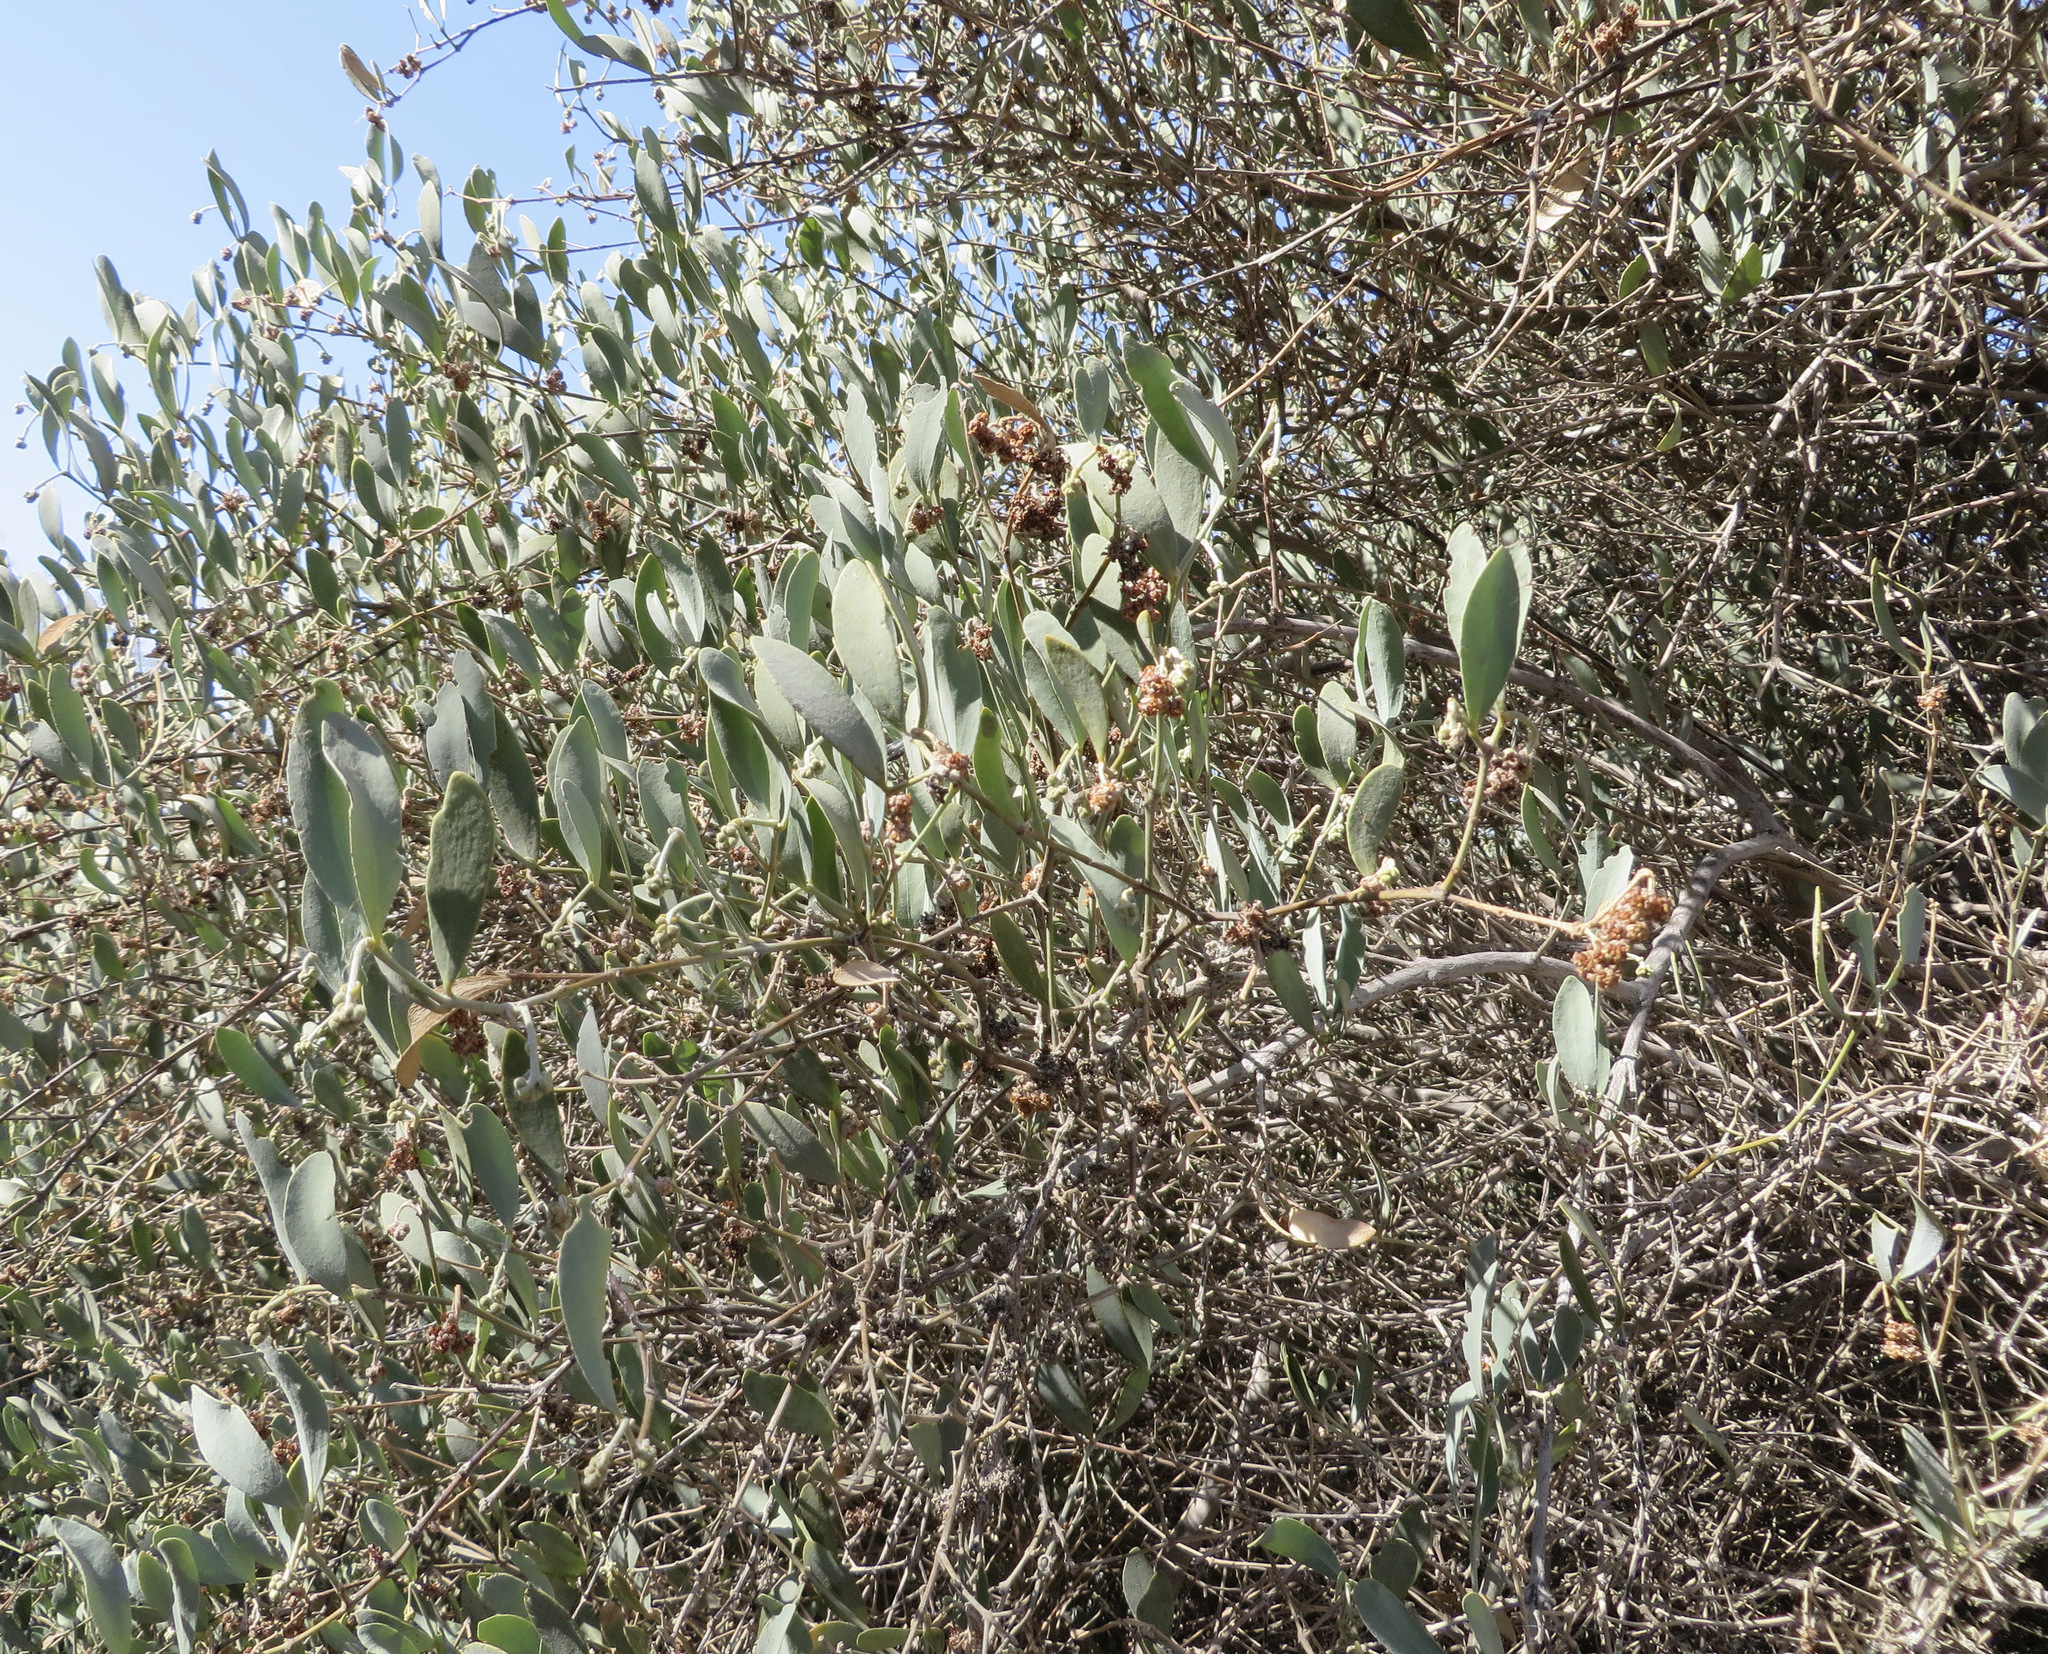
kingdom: Plantae
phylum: Tracheophyta
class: Magnoliopsida
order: Caryophyllales
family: Simmondsiaceae
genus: Simmondsia
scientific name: Simmondsia chinensis
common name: Jojoba
